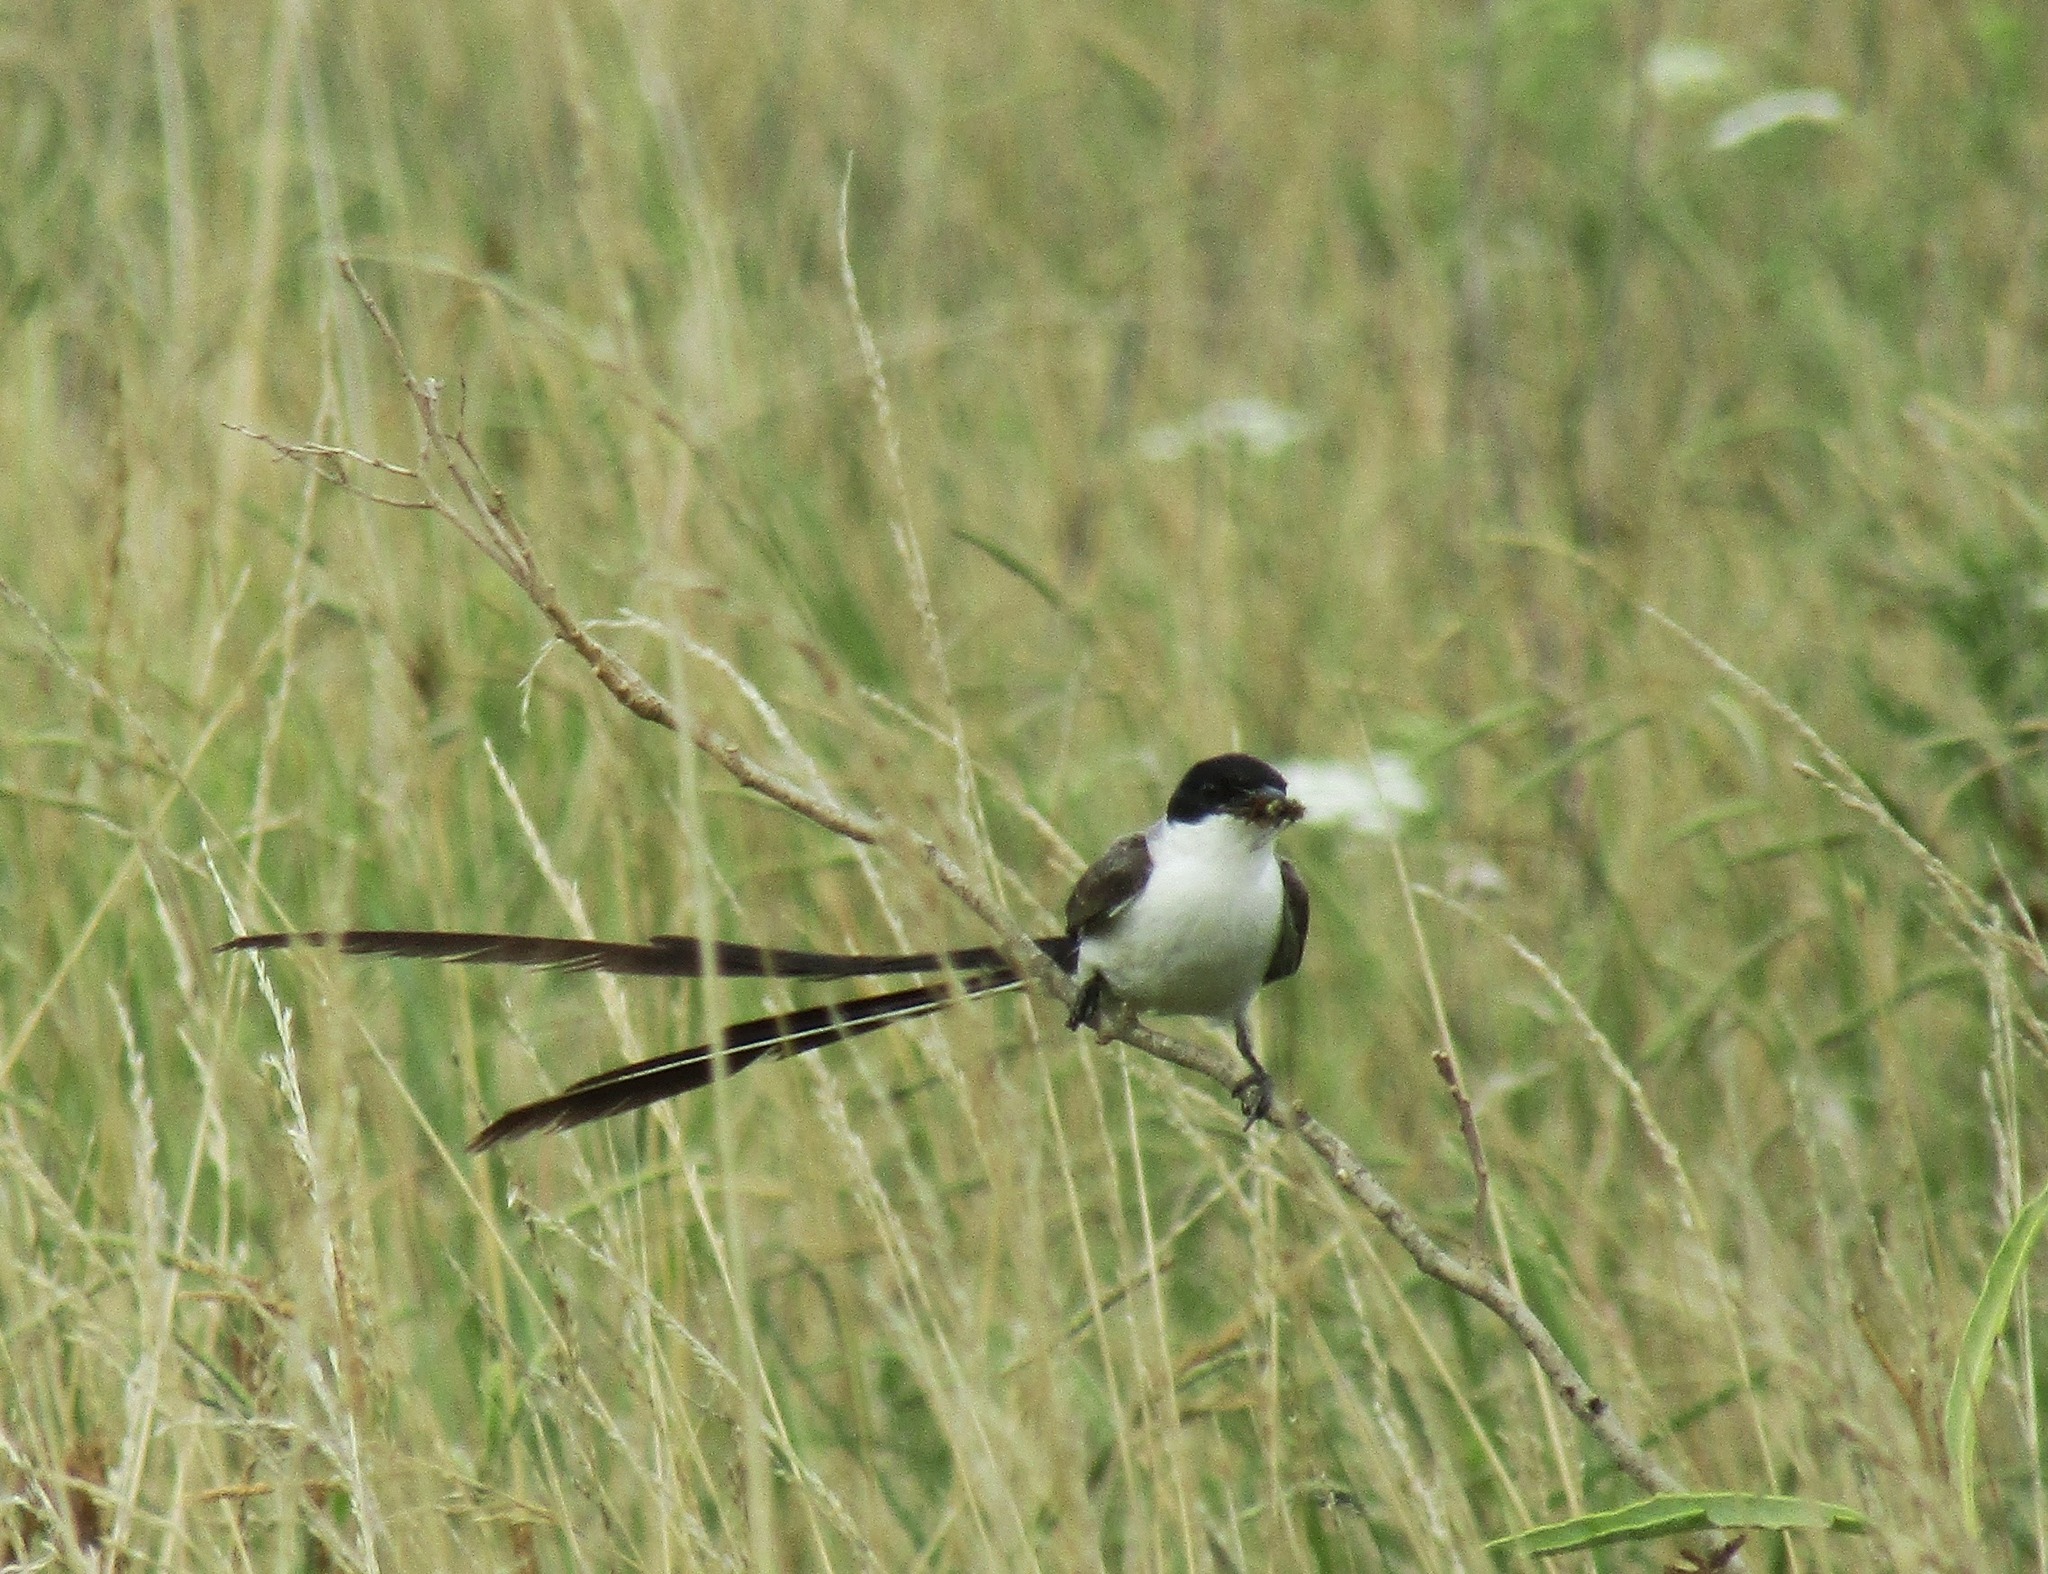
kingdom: Animalia
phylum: Chordata
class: Aves
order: Passeriformes
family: Tyrannidae
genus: Tyrannus
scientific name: Tyrannus savana
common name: Fork-tailed flycatcher
